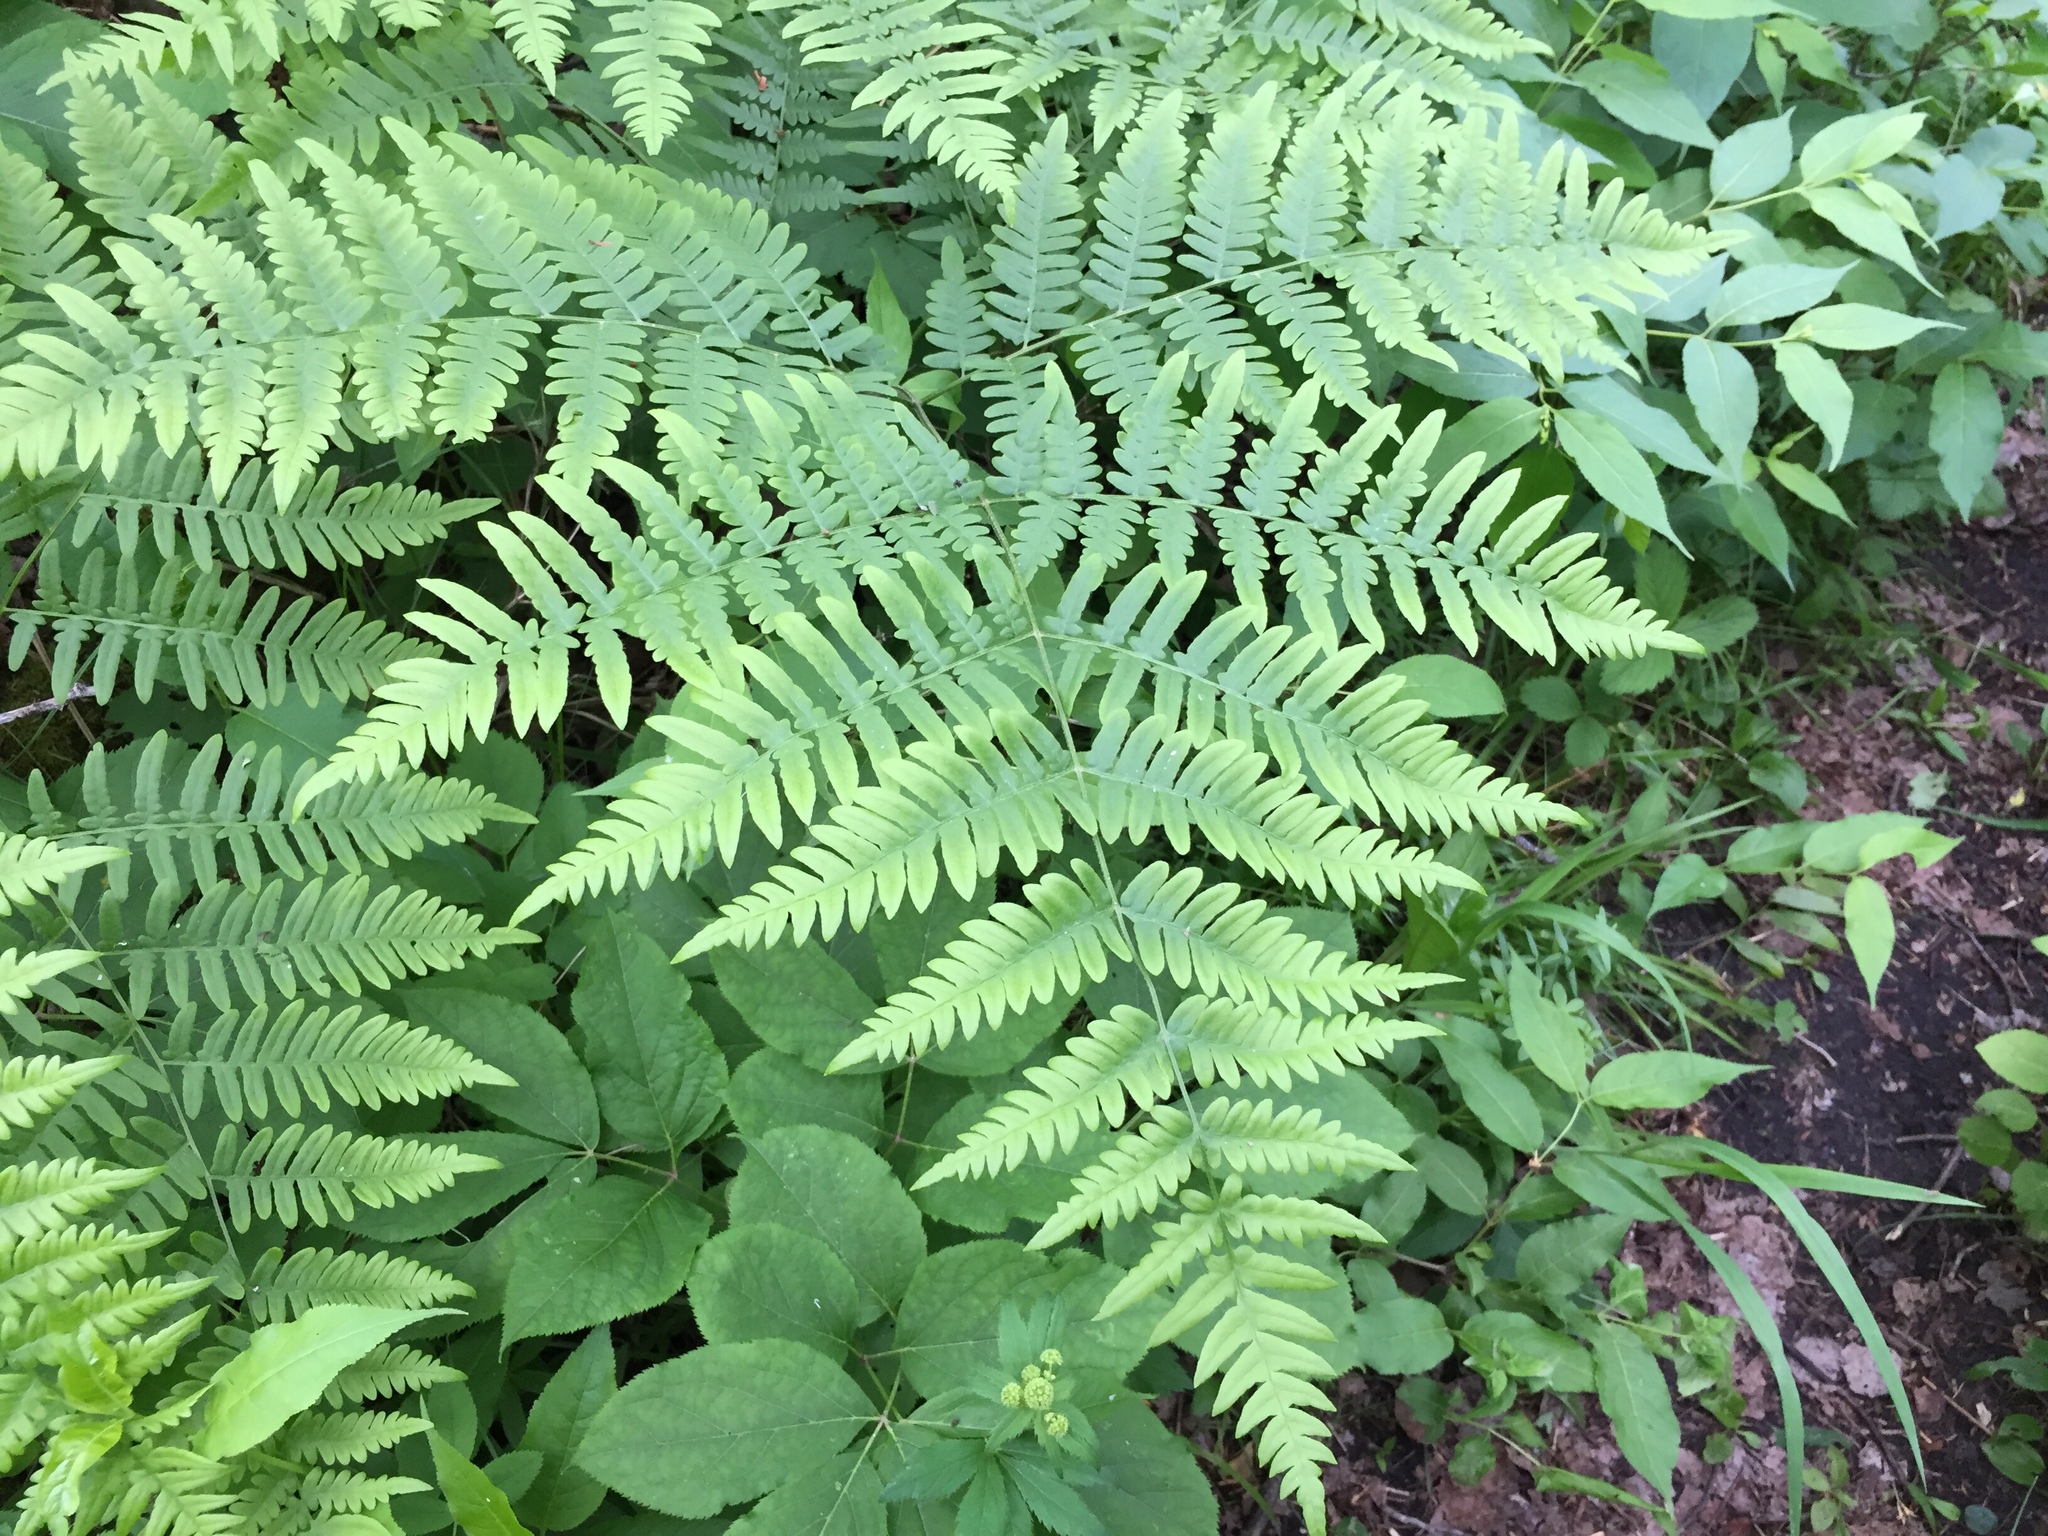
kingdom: Plantae
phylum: Tracheophyta
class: Polypodiopsida
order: Polypodiales
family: Dennstaedtiaceae
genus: Pteridium
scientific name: Pteridium aquilinum
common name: Bracken
